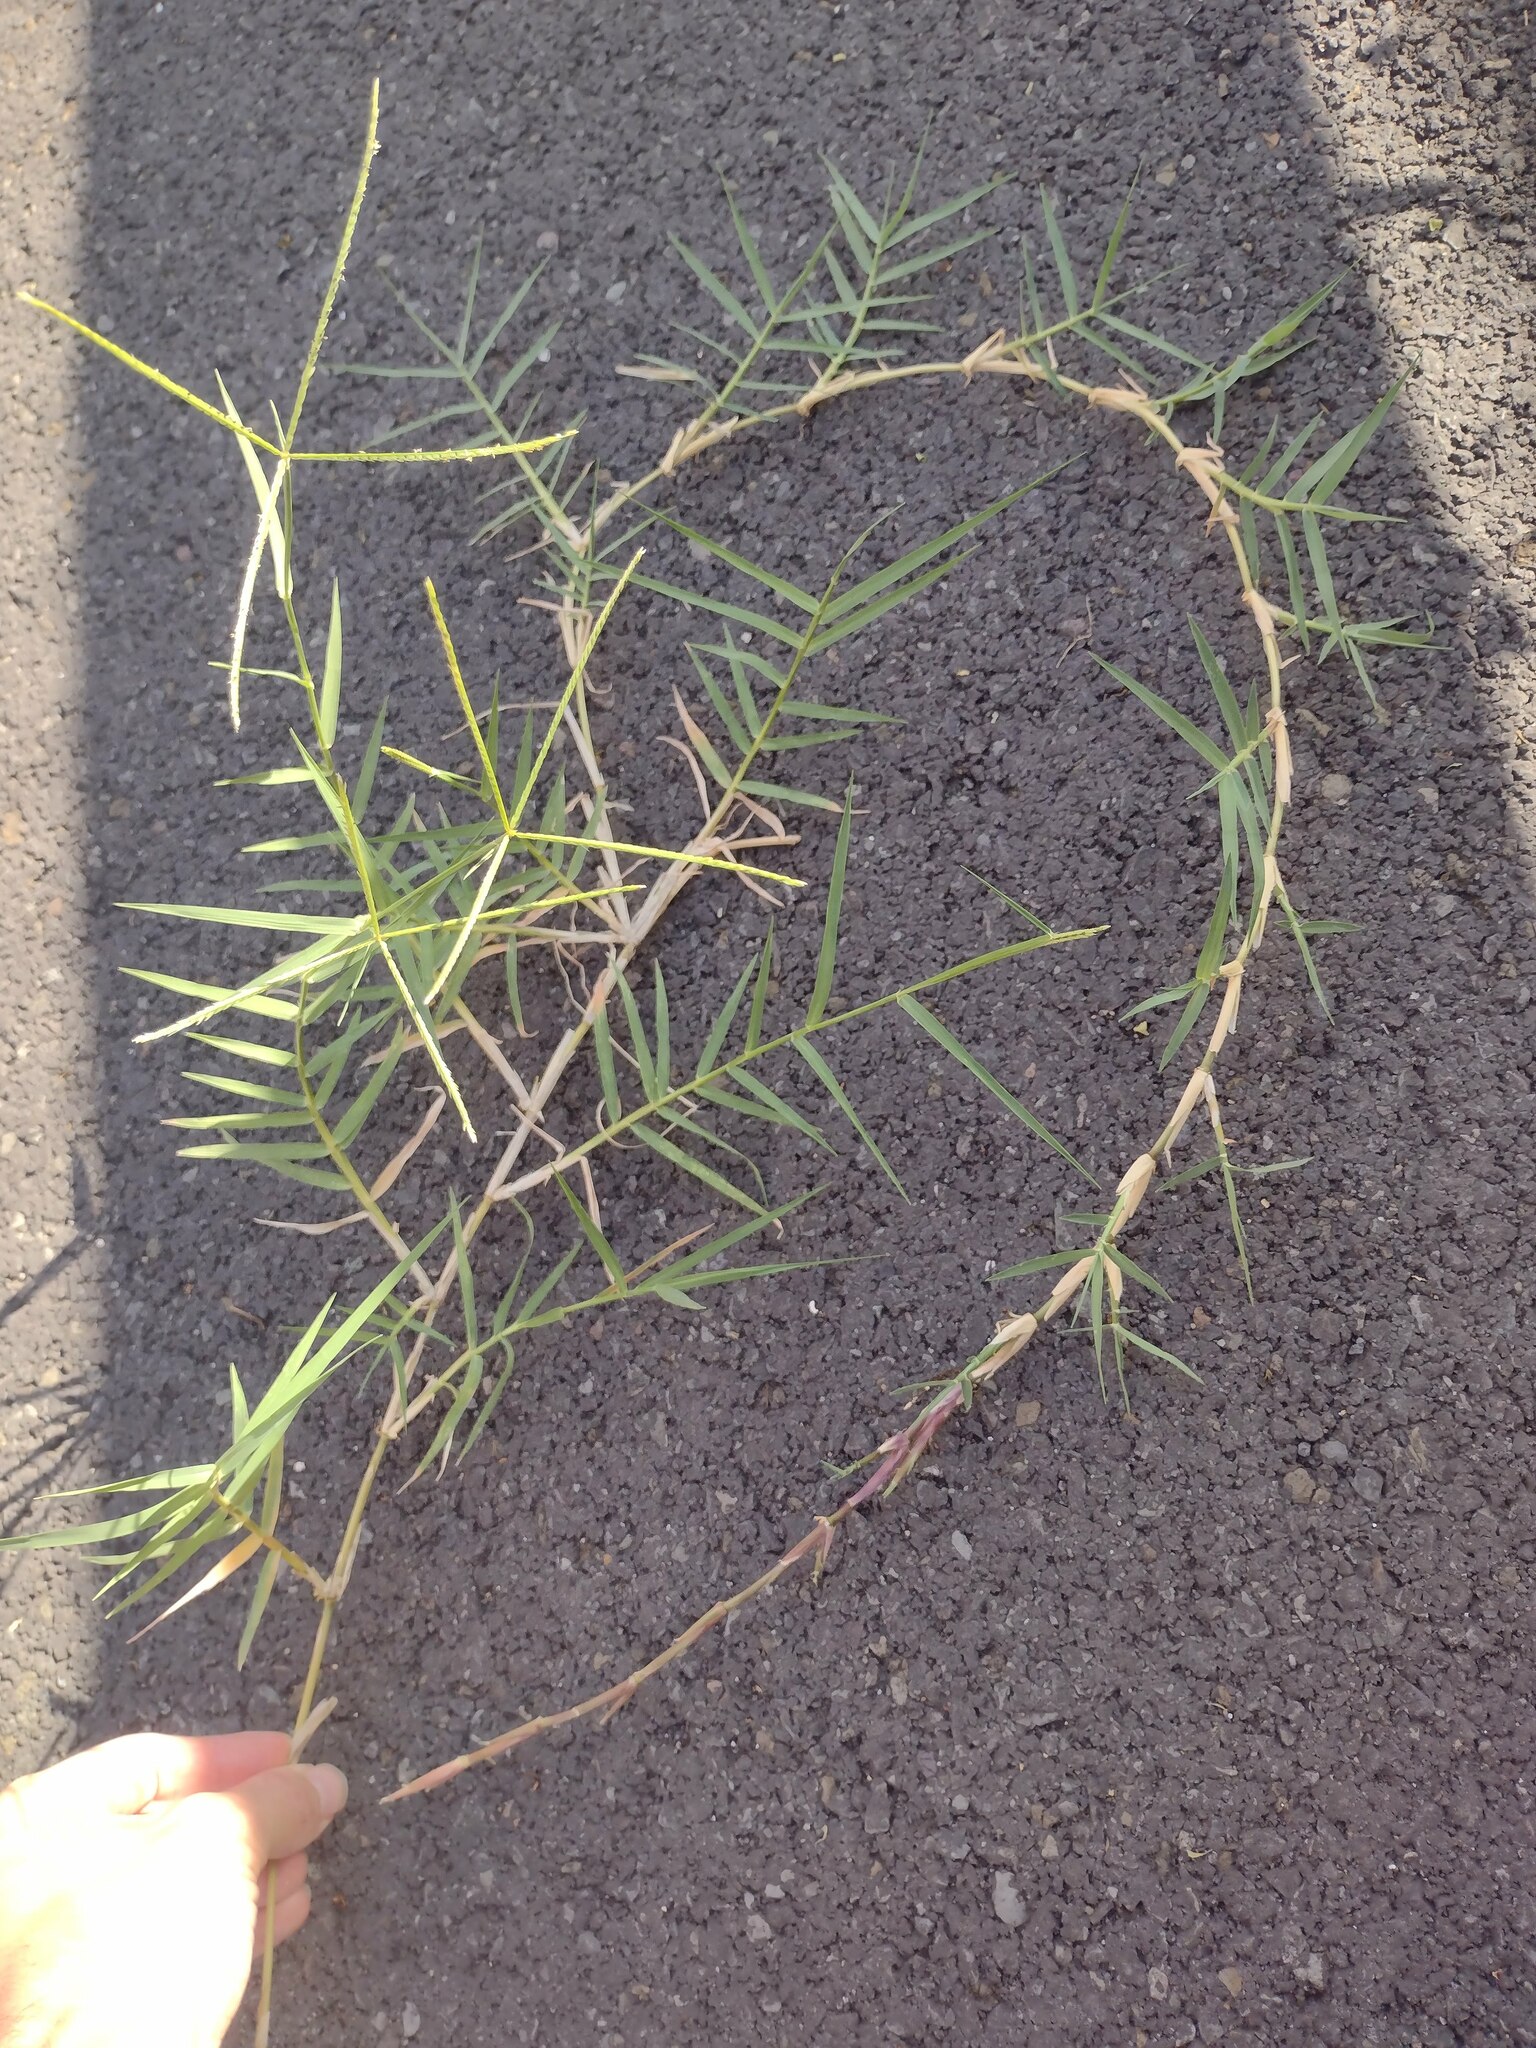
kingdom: Plantae
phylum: Tracheophyta
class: Liliopsida
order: Poales
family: Poaceae
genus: Cynodon
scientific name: Cynodon nlemfuensis
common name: African bermudagrass
